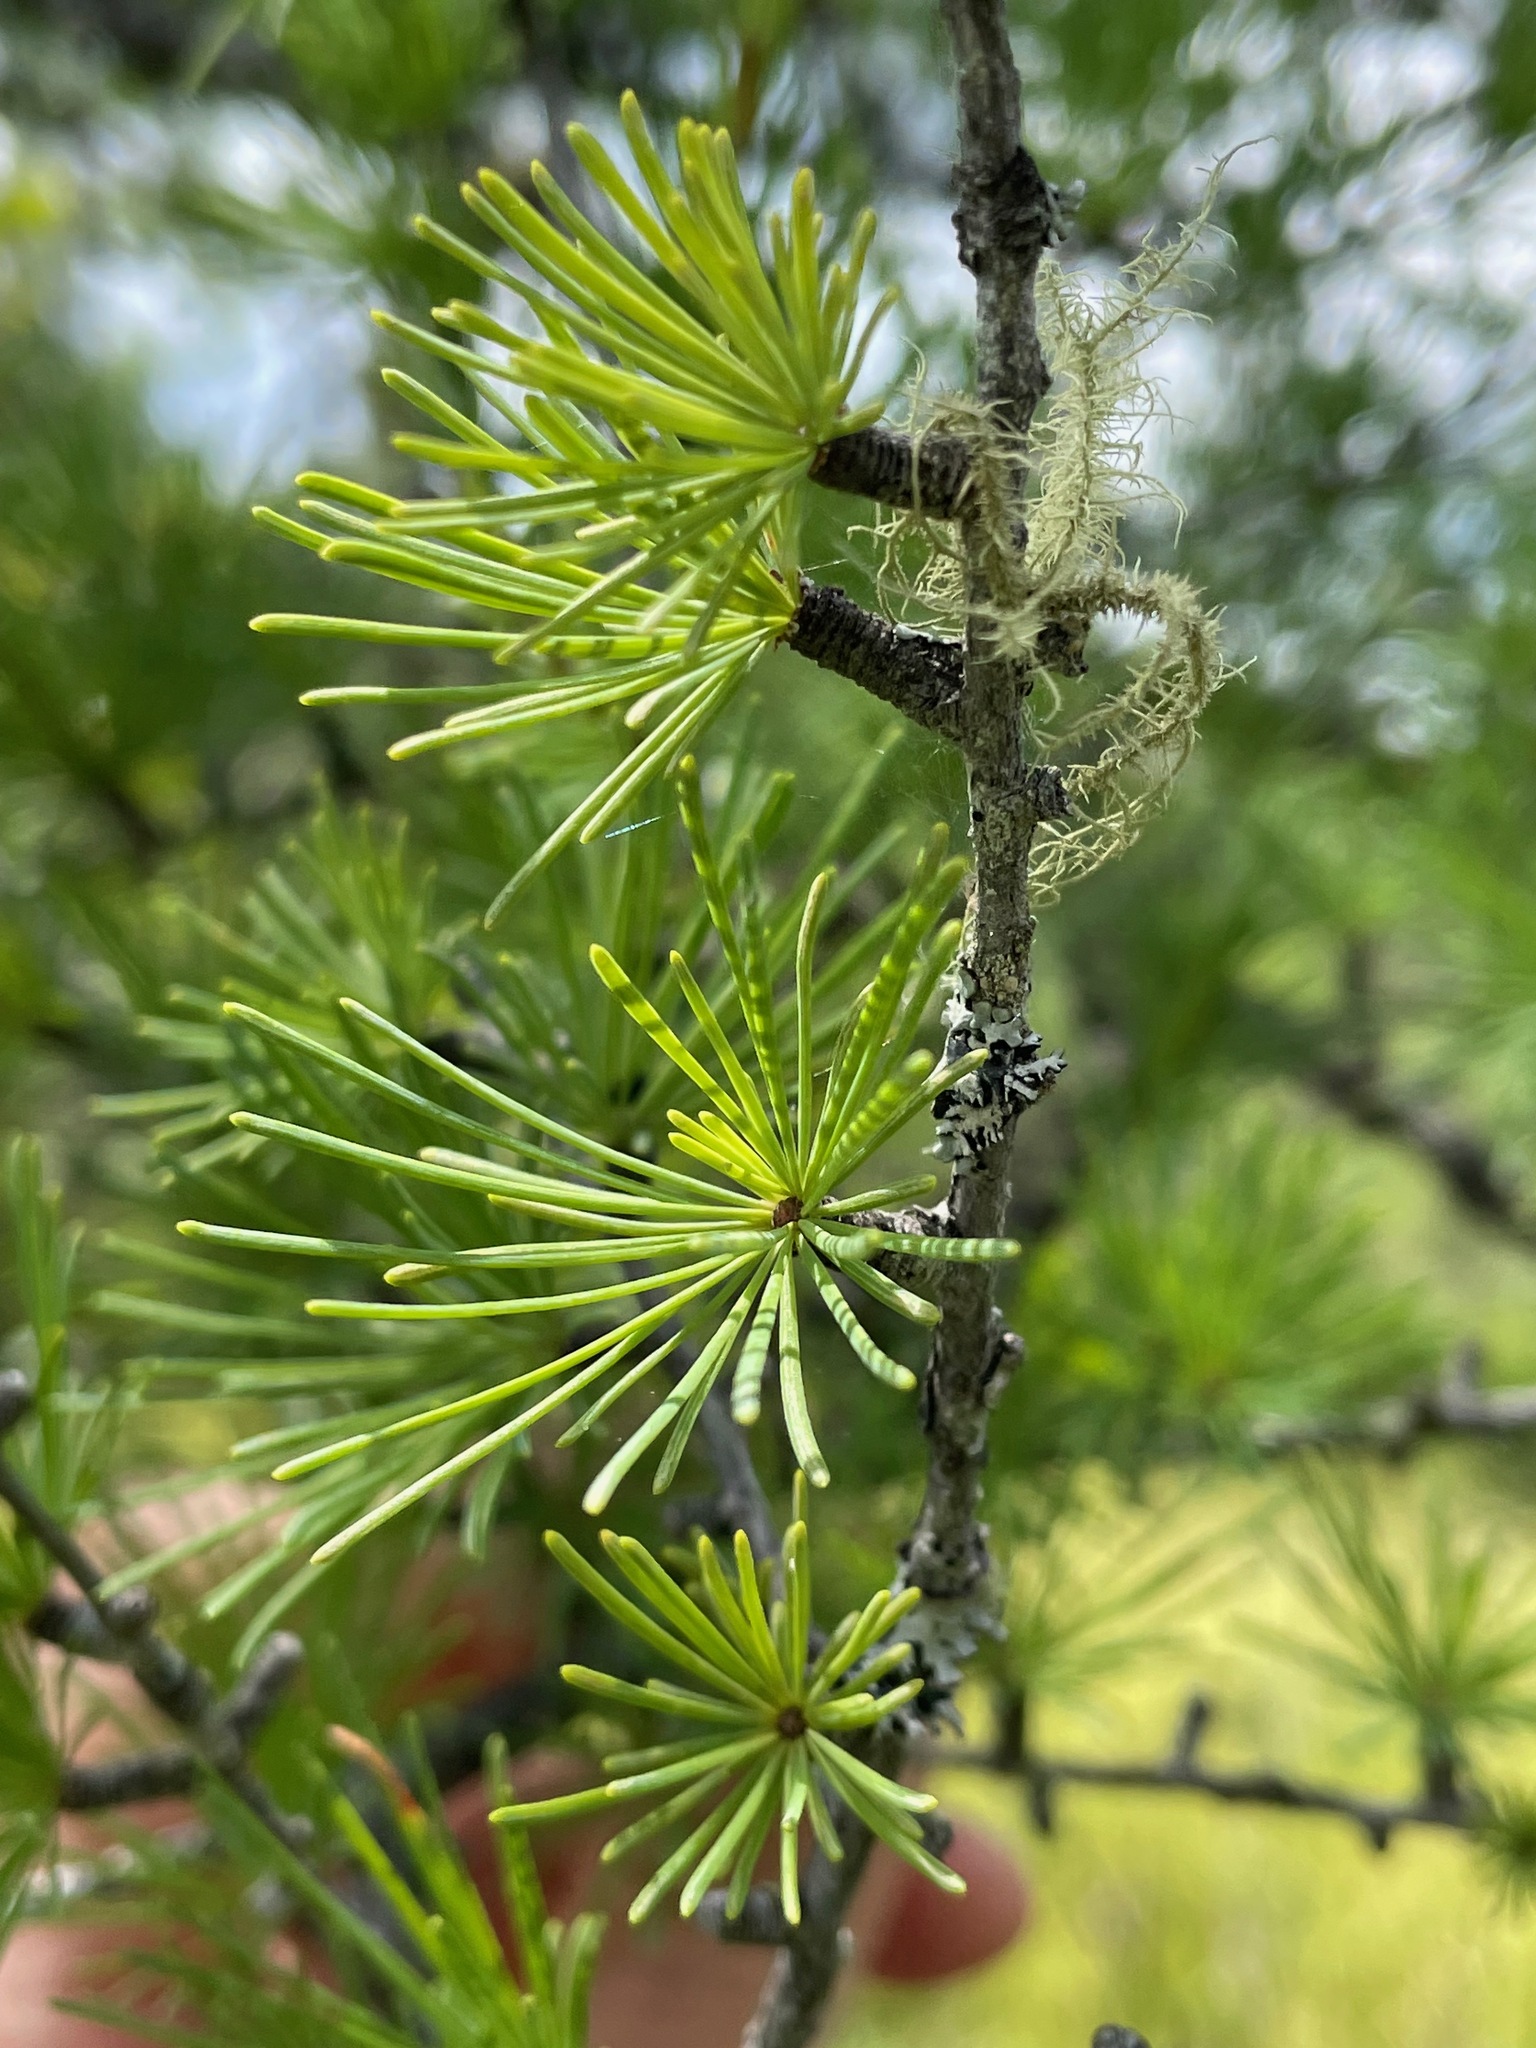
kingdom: Plantae
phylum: Tracheophyta
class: Pinopsida
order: Pinales
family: Pinaceae
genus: Larix
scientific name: Larix laricina
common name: American larch
